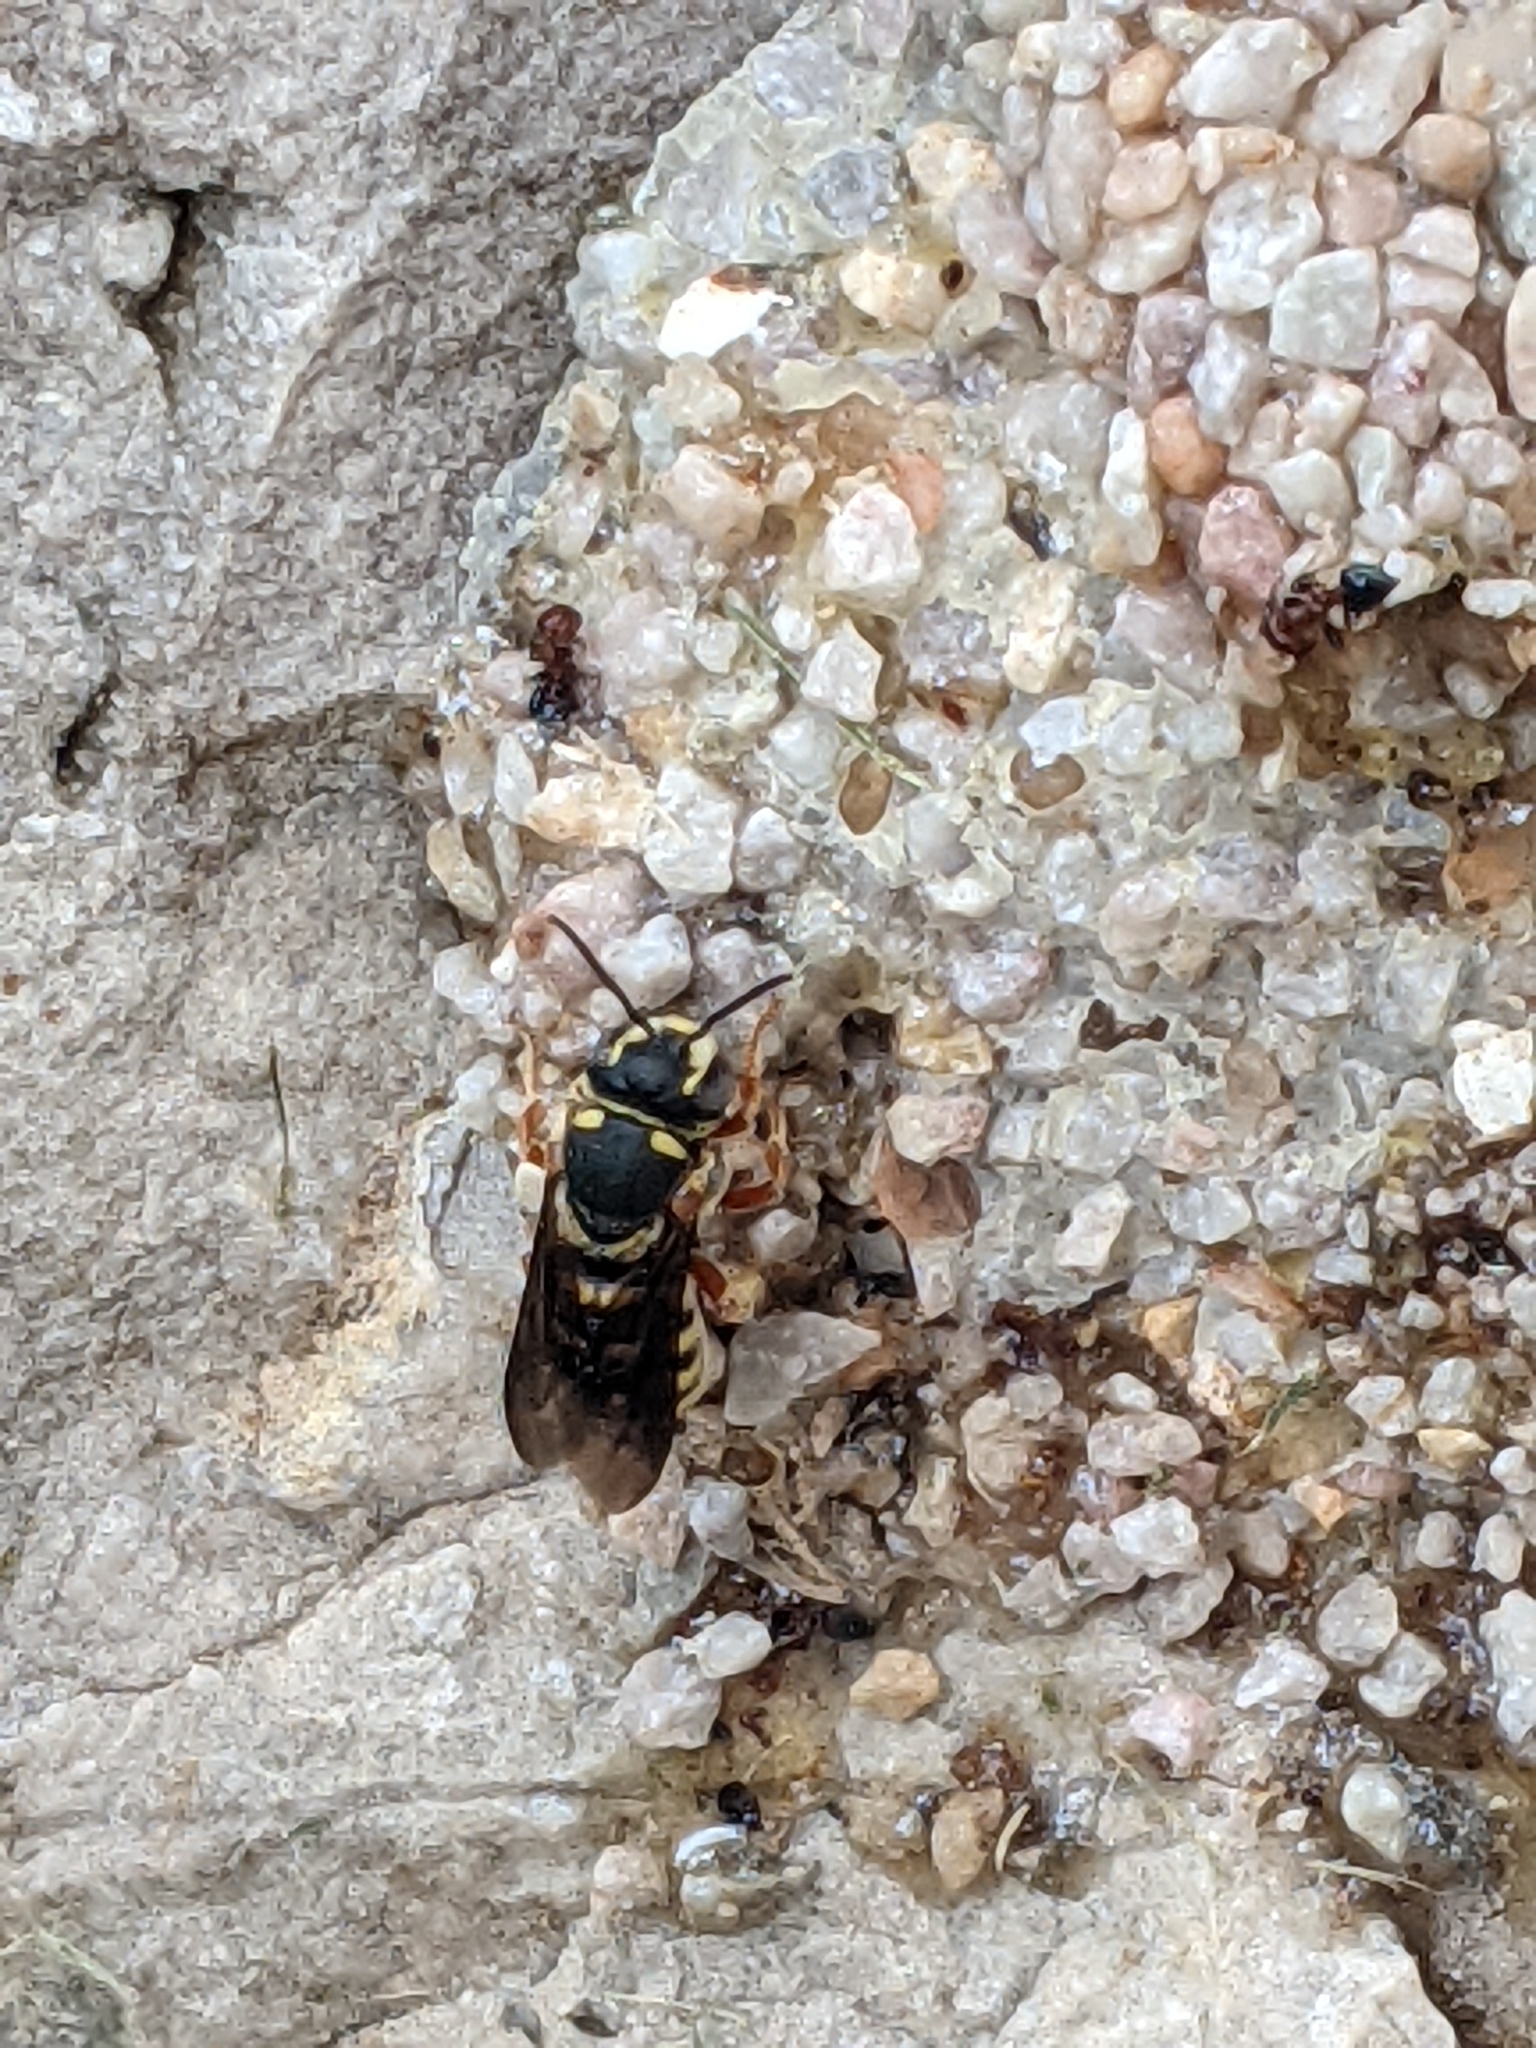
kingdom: Animalia
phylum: Arthropoda
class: Insecta
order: Hymenoptera
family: Megachilidae
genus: Dianthidium
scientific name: Dianthidium texanum
